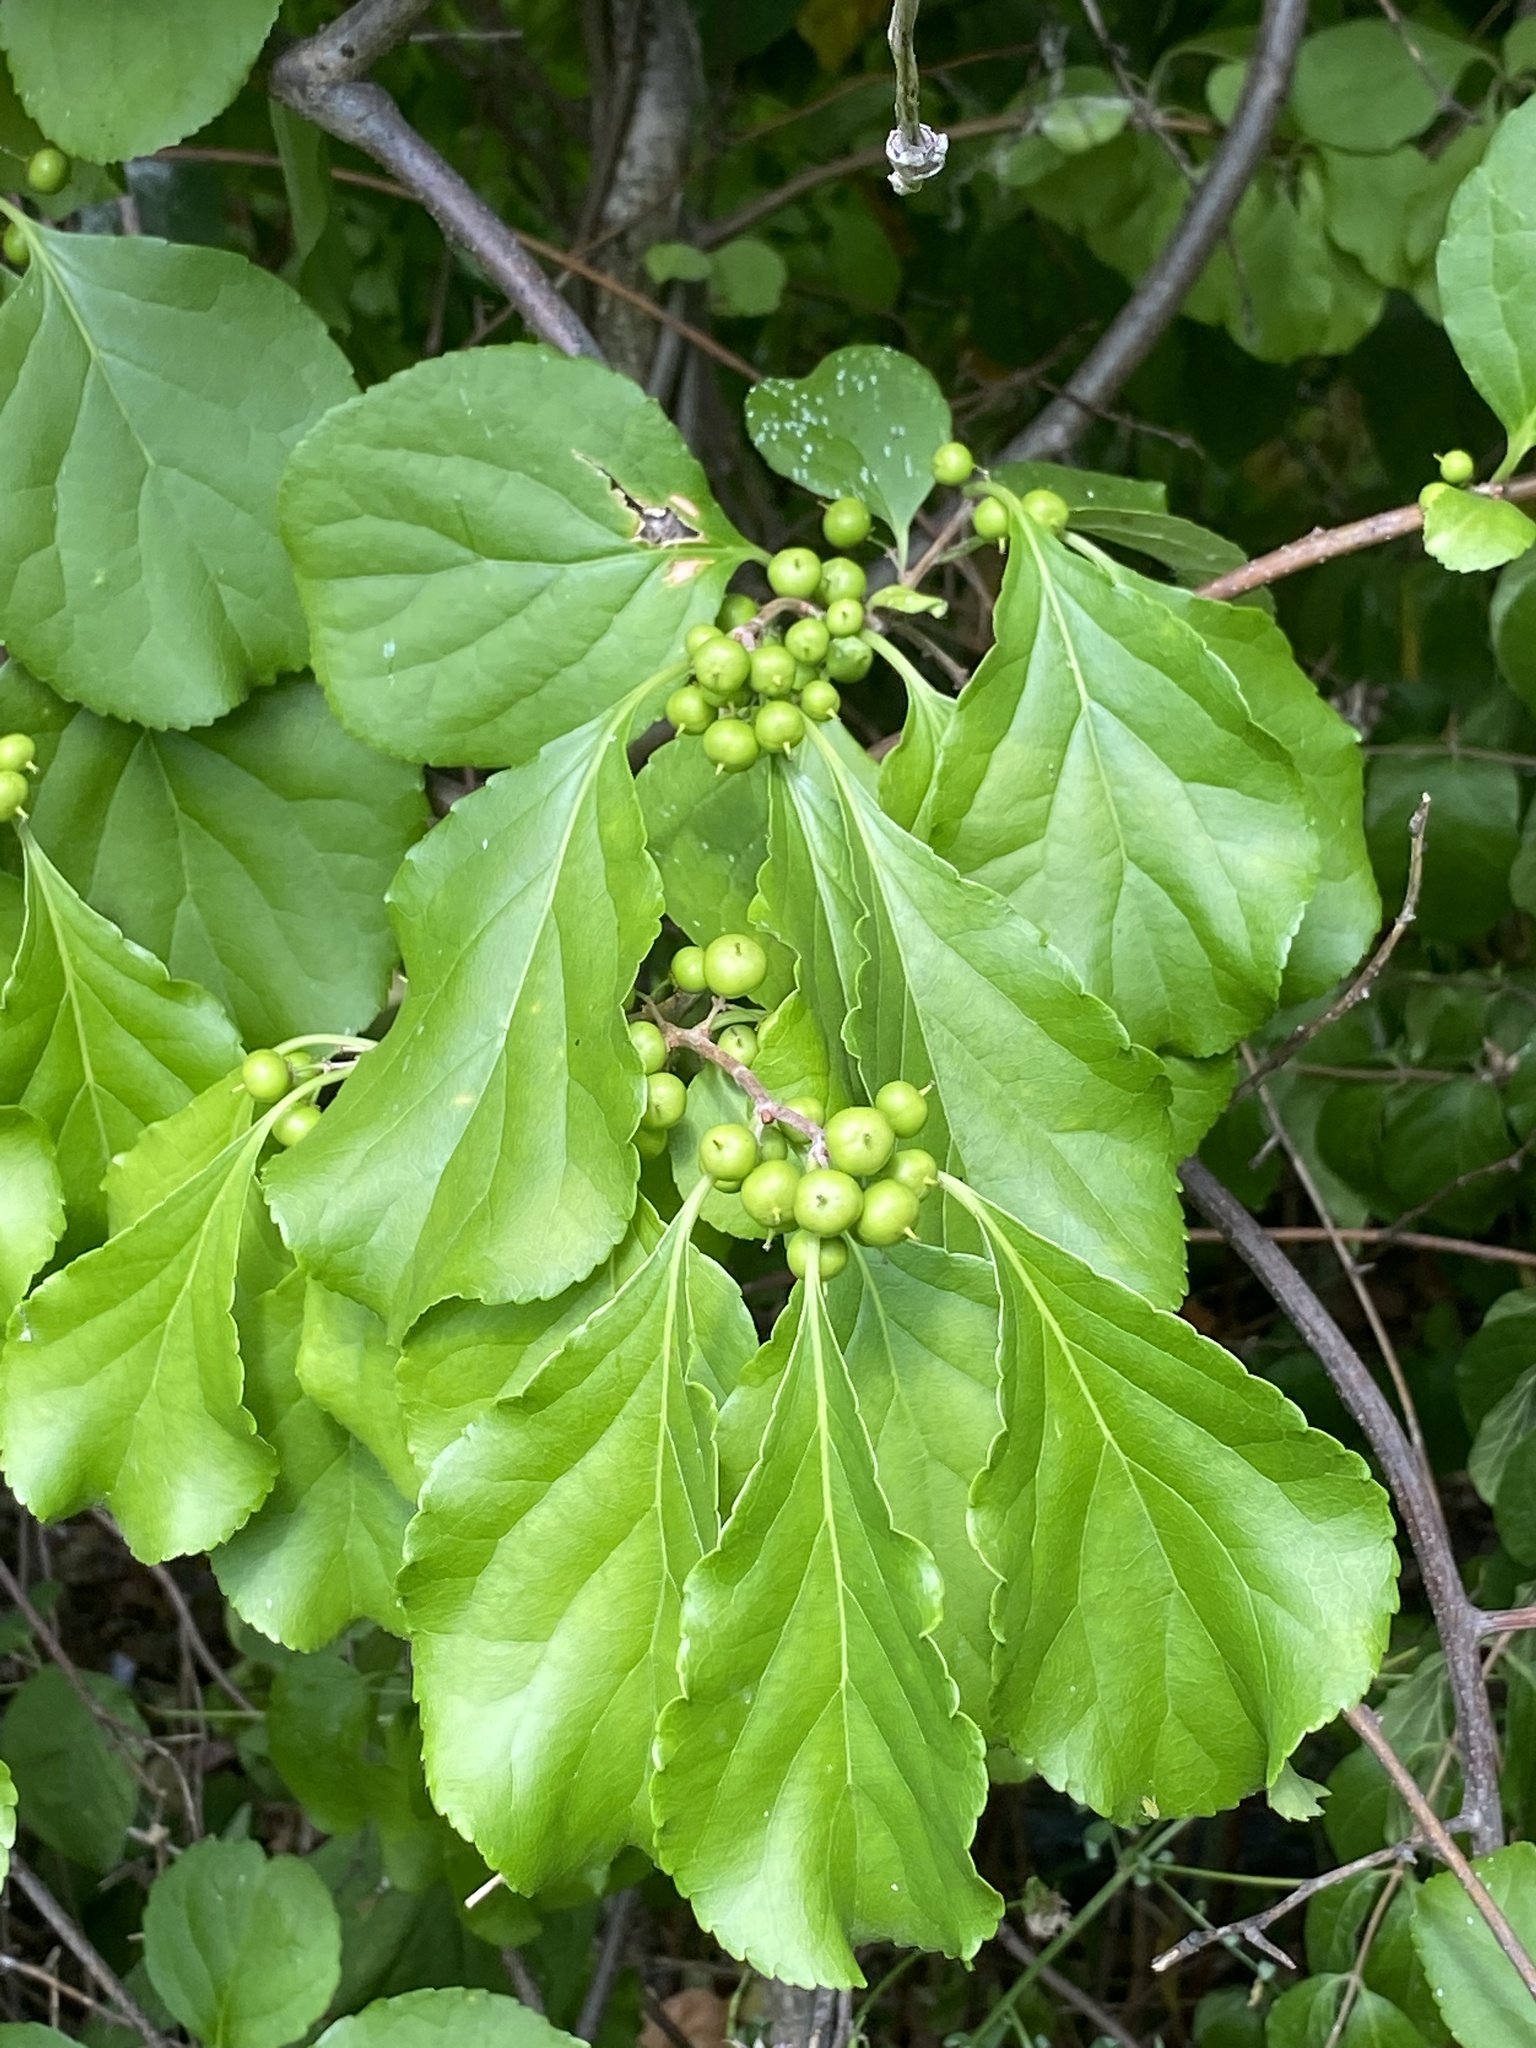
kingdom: Plantae
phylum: Tracheophyta
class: Magnoliopsida
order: Celastrales
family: Celastraceae
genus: Celastrus
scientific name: Celastrus orbiculatus
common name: Oriental bittersweet
